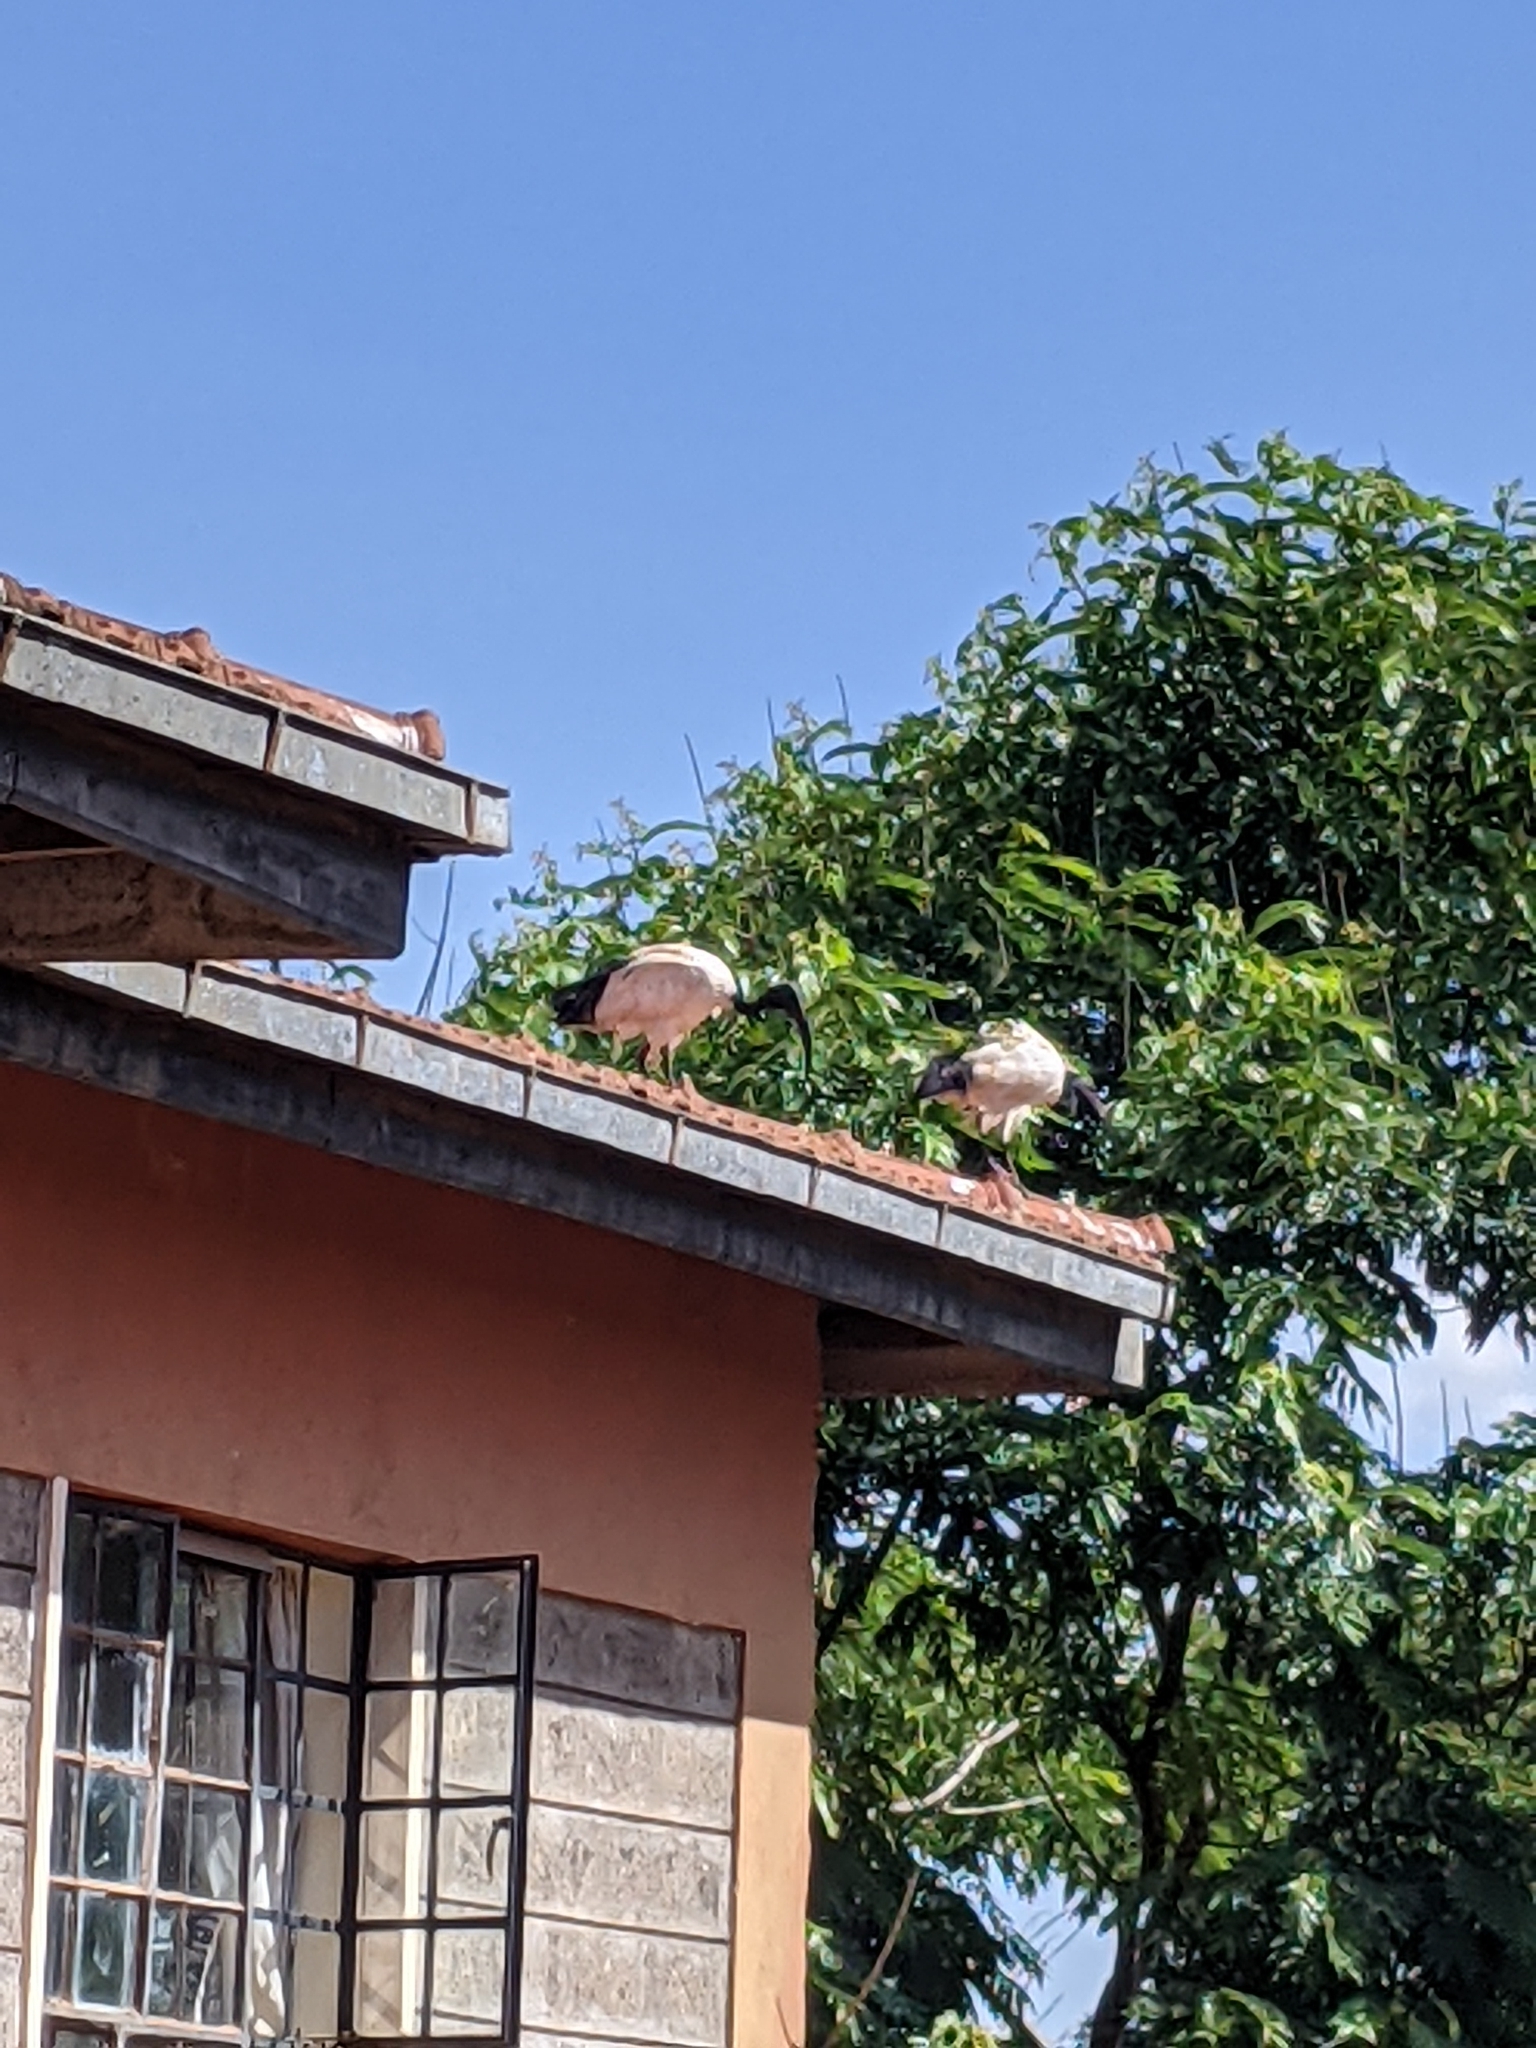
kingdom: Animalia
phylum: Chordata
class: Aves
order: Pelecaniformes
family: Threskiornithidae
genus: Threskiornis
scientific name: Threskiornis aethiopicus
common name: Sacred ibis
